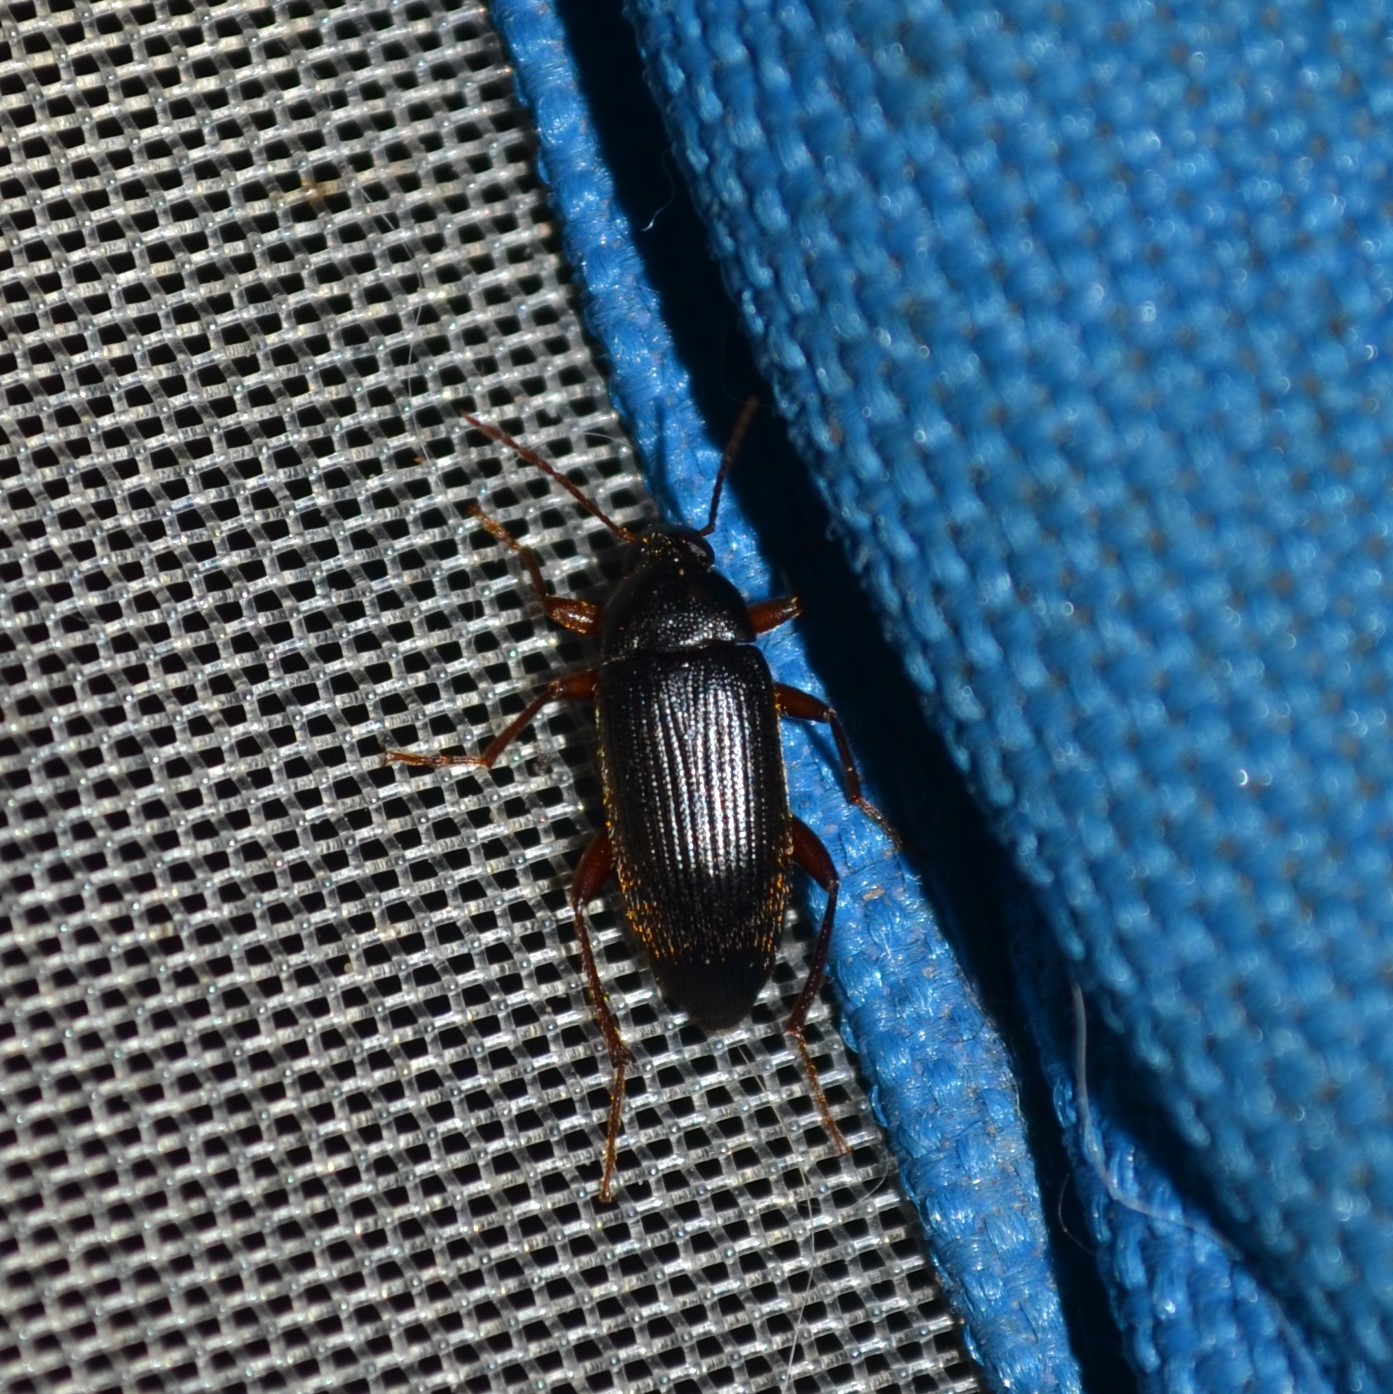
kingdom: Animalia
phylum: Arthropoda
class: Insecta
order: Coleoptera
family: Tenebrionidae
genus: Lobopoda
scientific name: Lobopoda erythrocnemis
